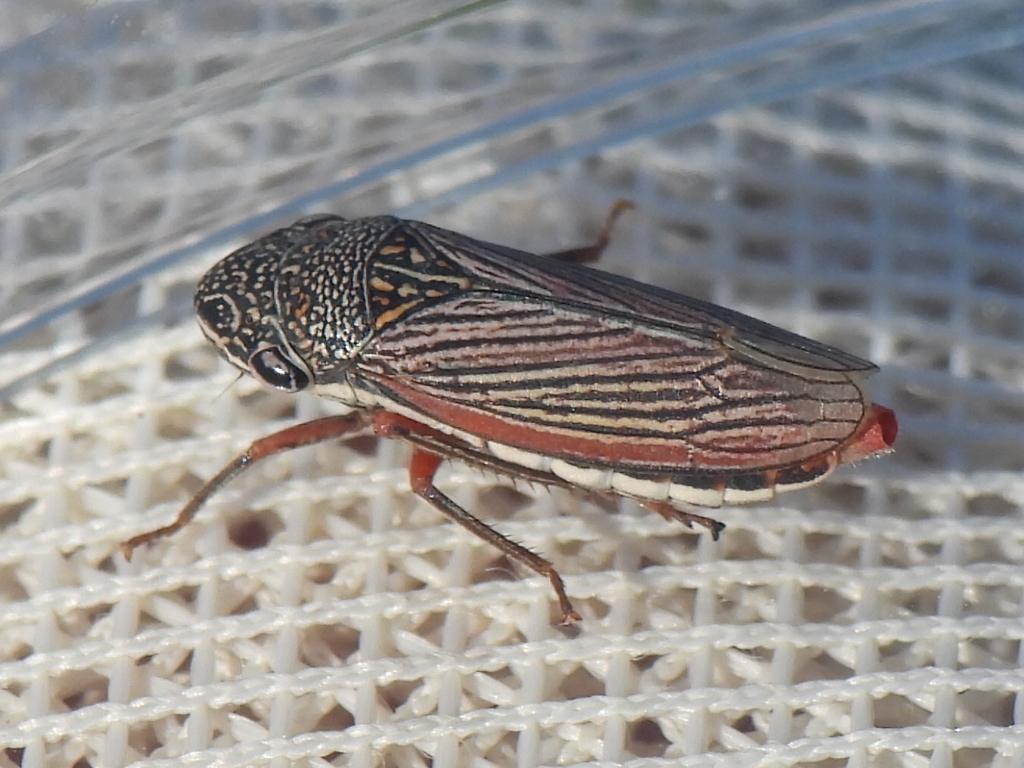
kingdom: Animalia
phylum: Arthropoda
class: Insecta
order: Hemiptera
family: Cicadellidae
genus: Cuerna
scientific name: Cuerna costalis
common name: Lateral-lined sharpshooter
